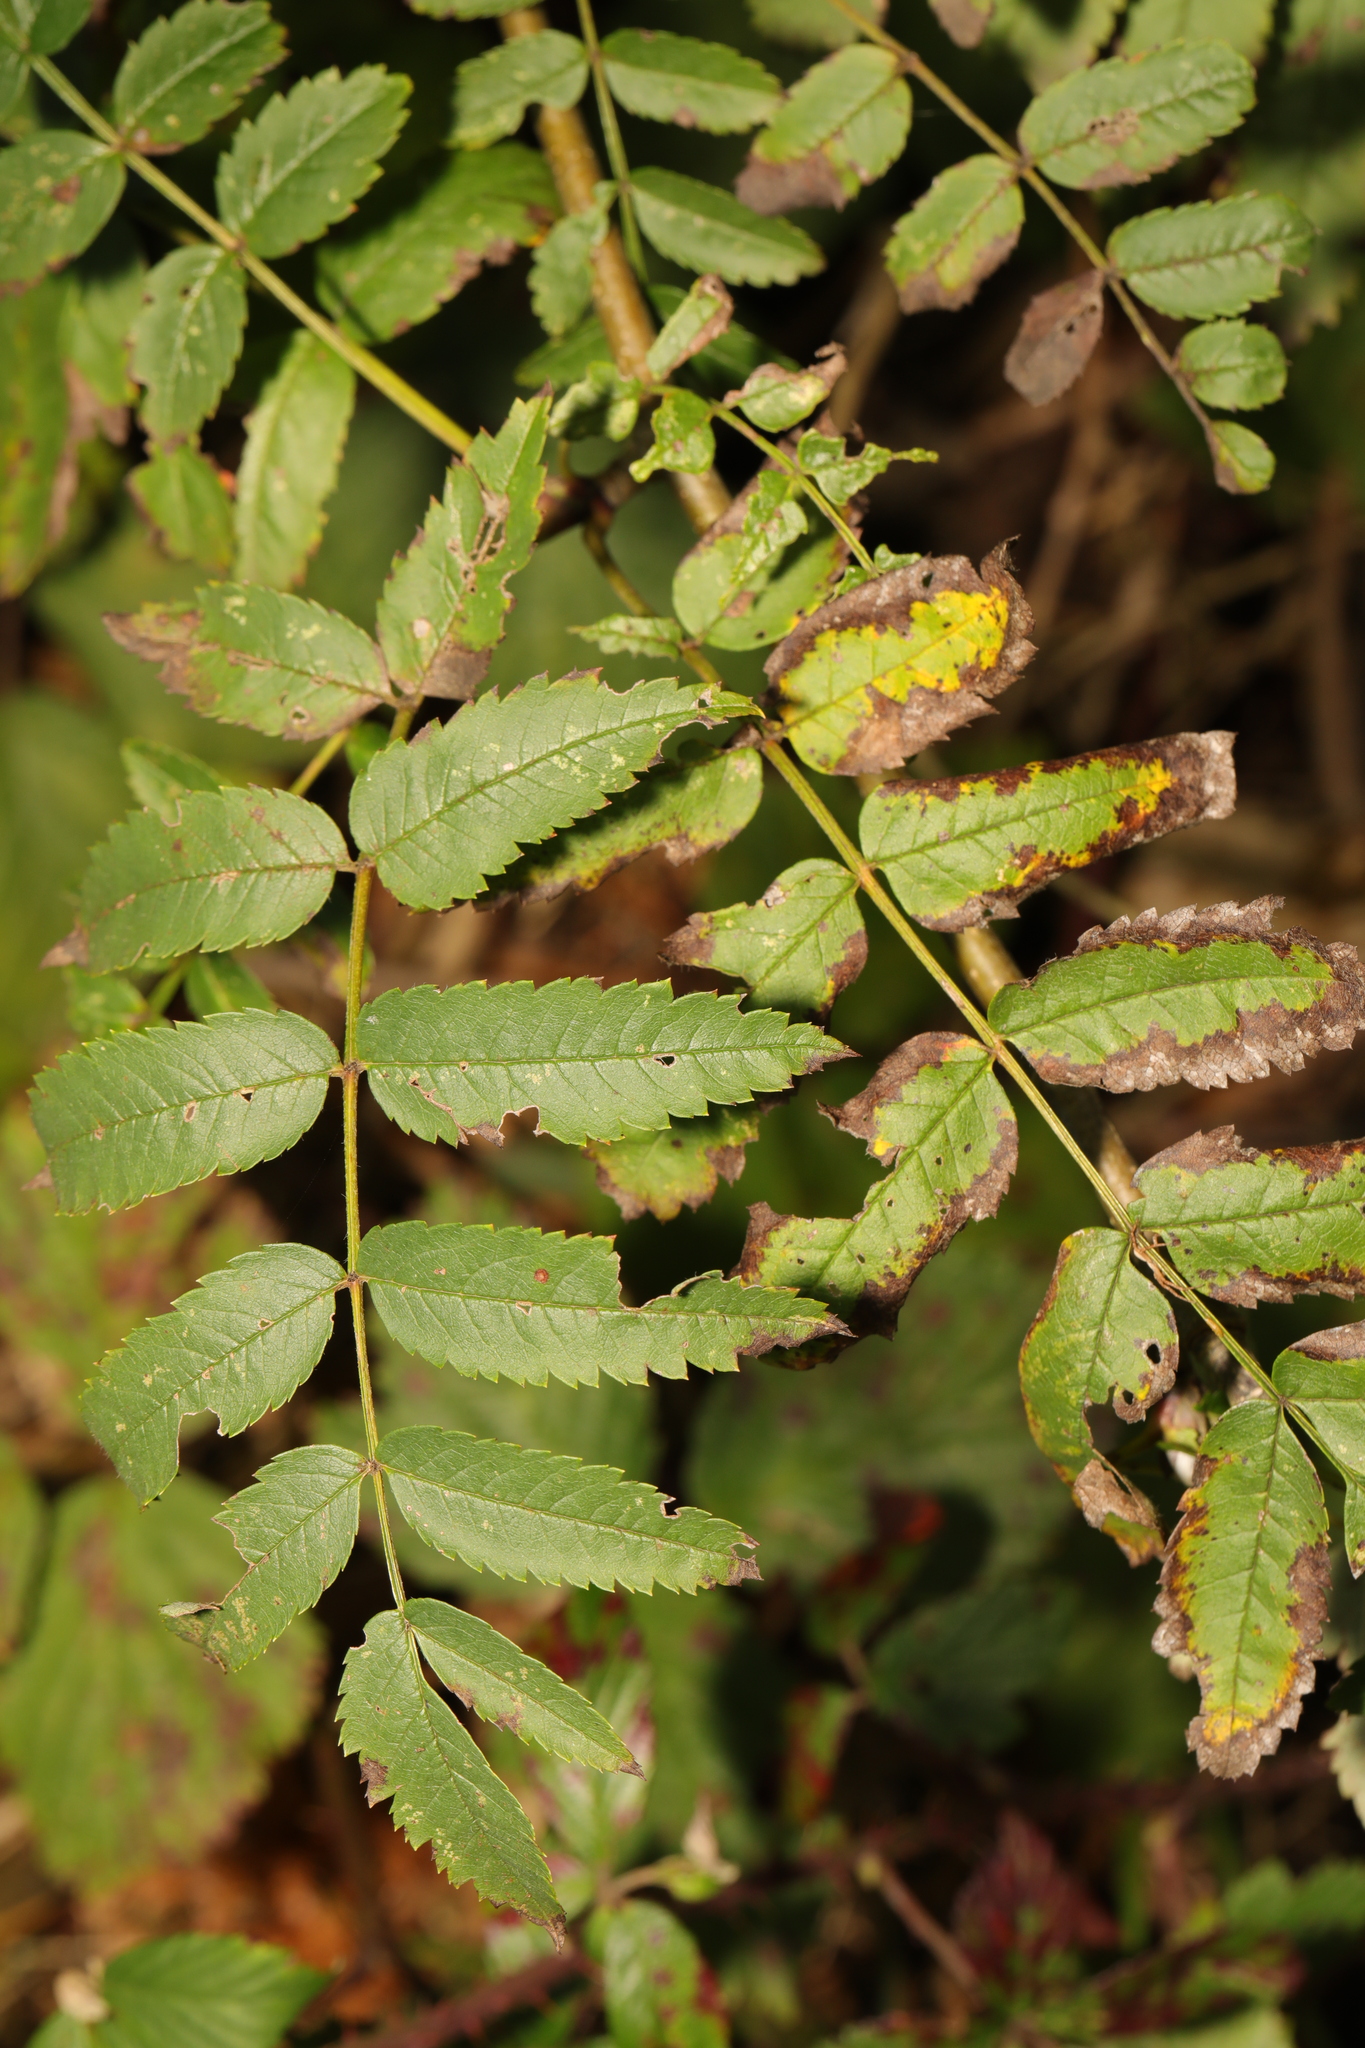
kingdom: Plantae
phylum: Tracheophyta
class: Magnoliopsida
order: Rosales
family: Rosaceae
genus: Sorbus
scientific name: Sorbus aucuparia
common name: Rowan
